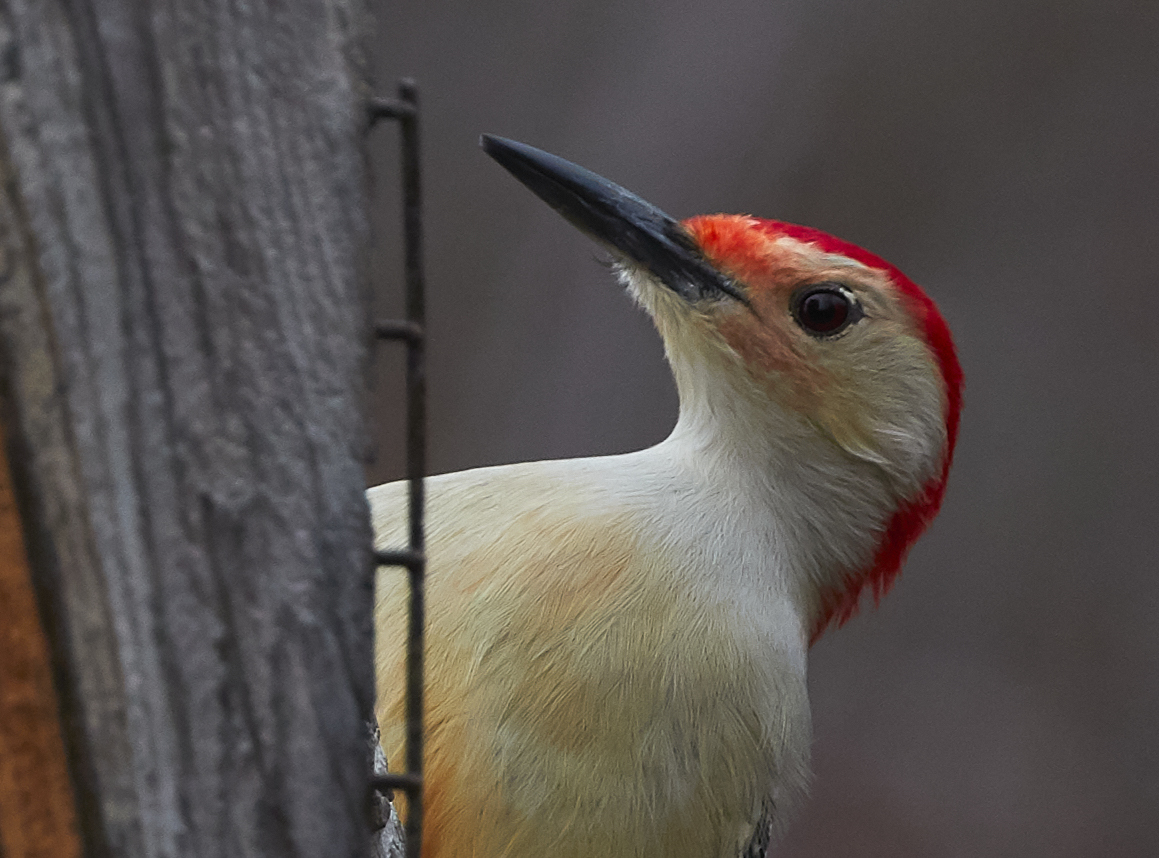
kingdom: Animalia
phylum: Chordata
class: Aves
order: Piciformes
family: Picidae
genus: Melanerpes
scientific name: Melanerpes carolinus
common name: Red-bellied woodpecker
